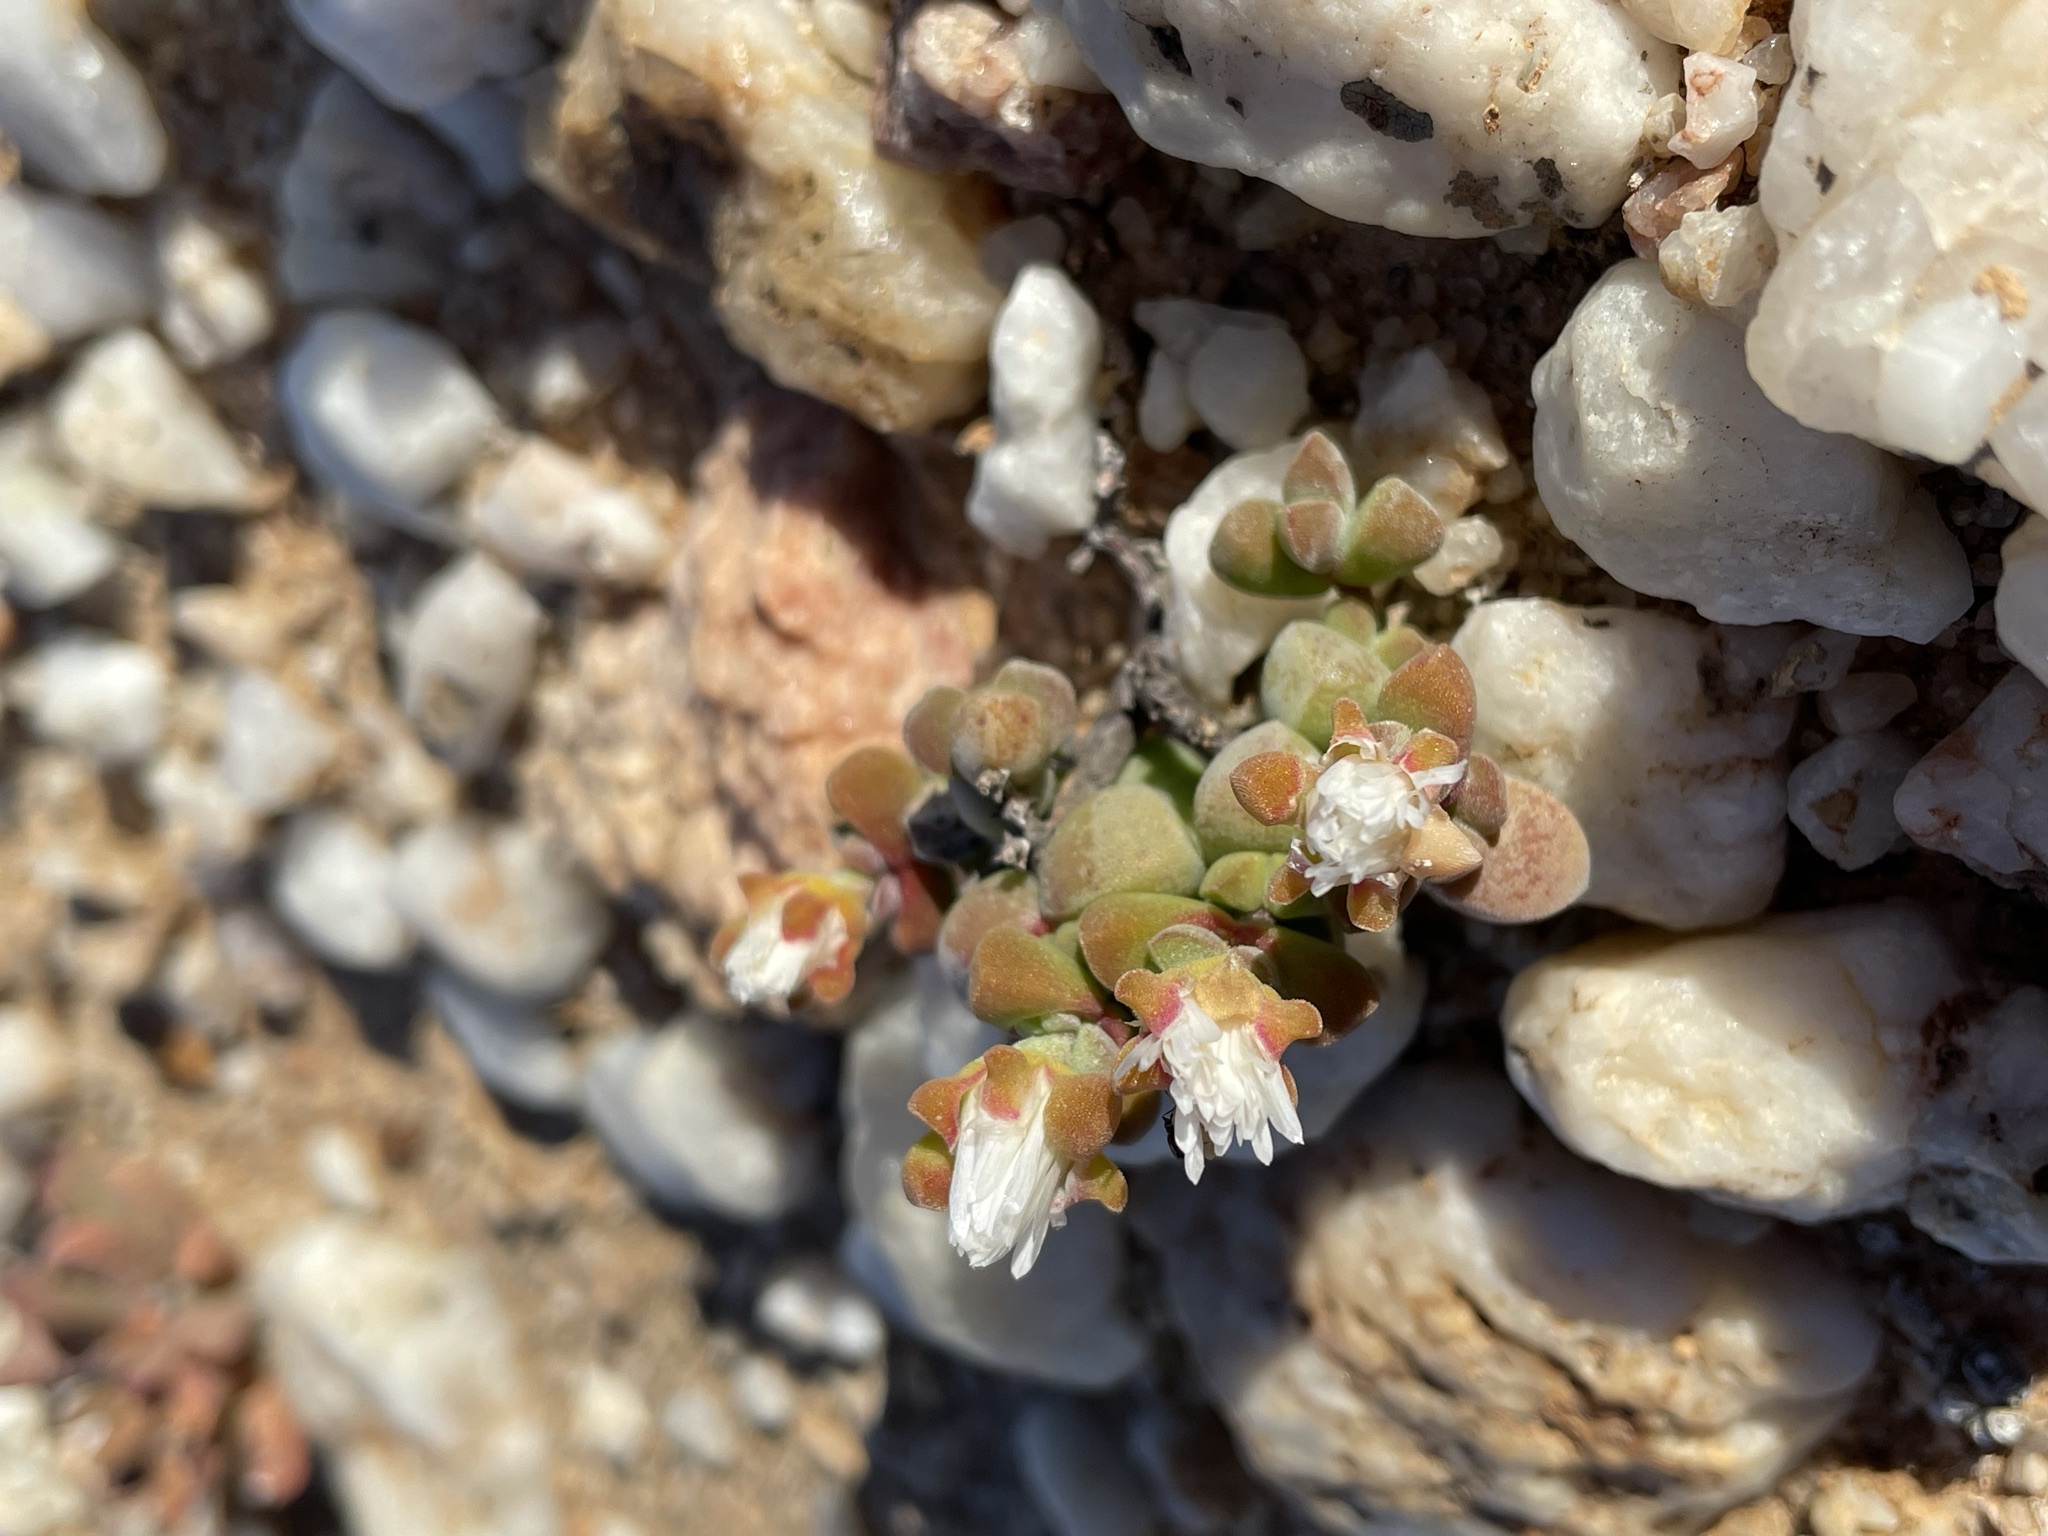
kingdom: Plantae
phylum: Tracheophyta
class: Magnoliopsida
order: Caryophyllales
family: Aizoaceae
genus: Drosanthemopsis
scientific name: Drosanthemopsis diversifolia
